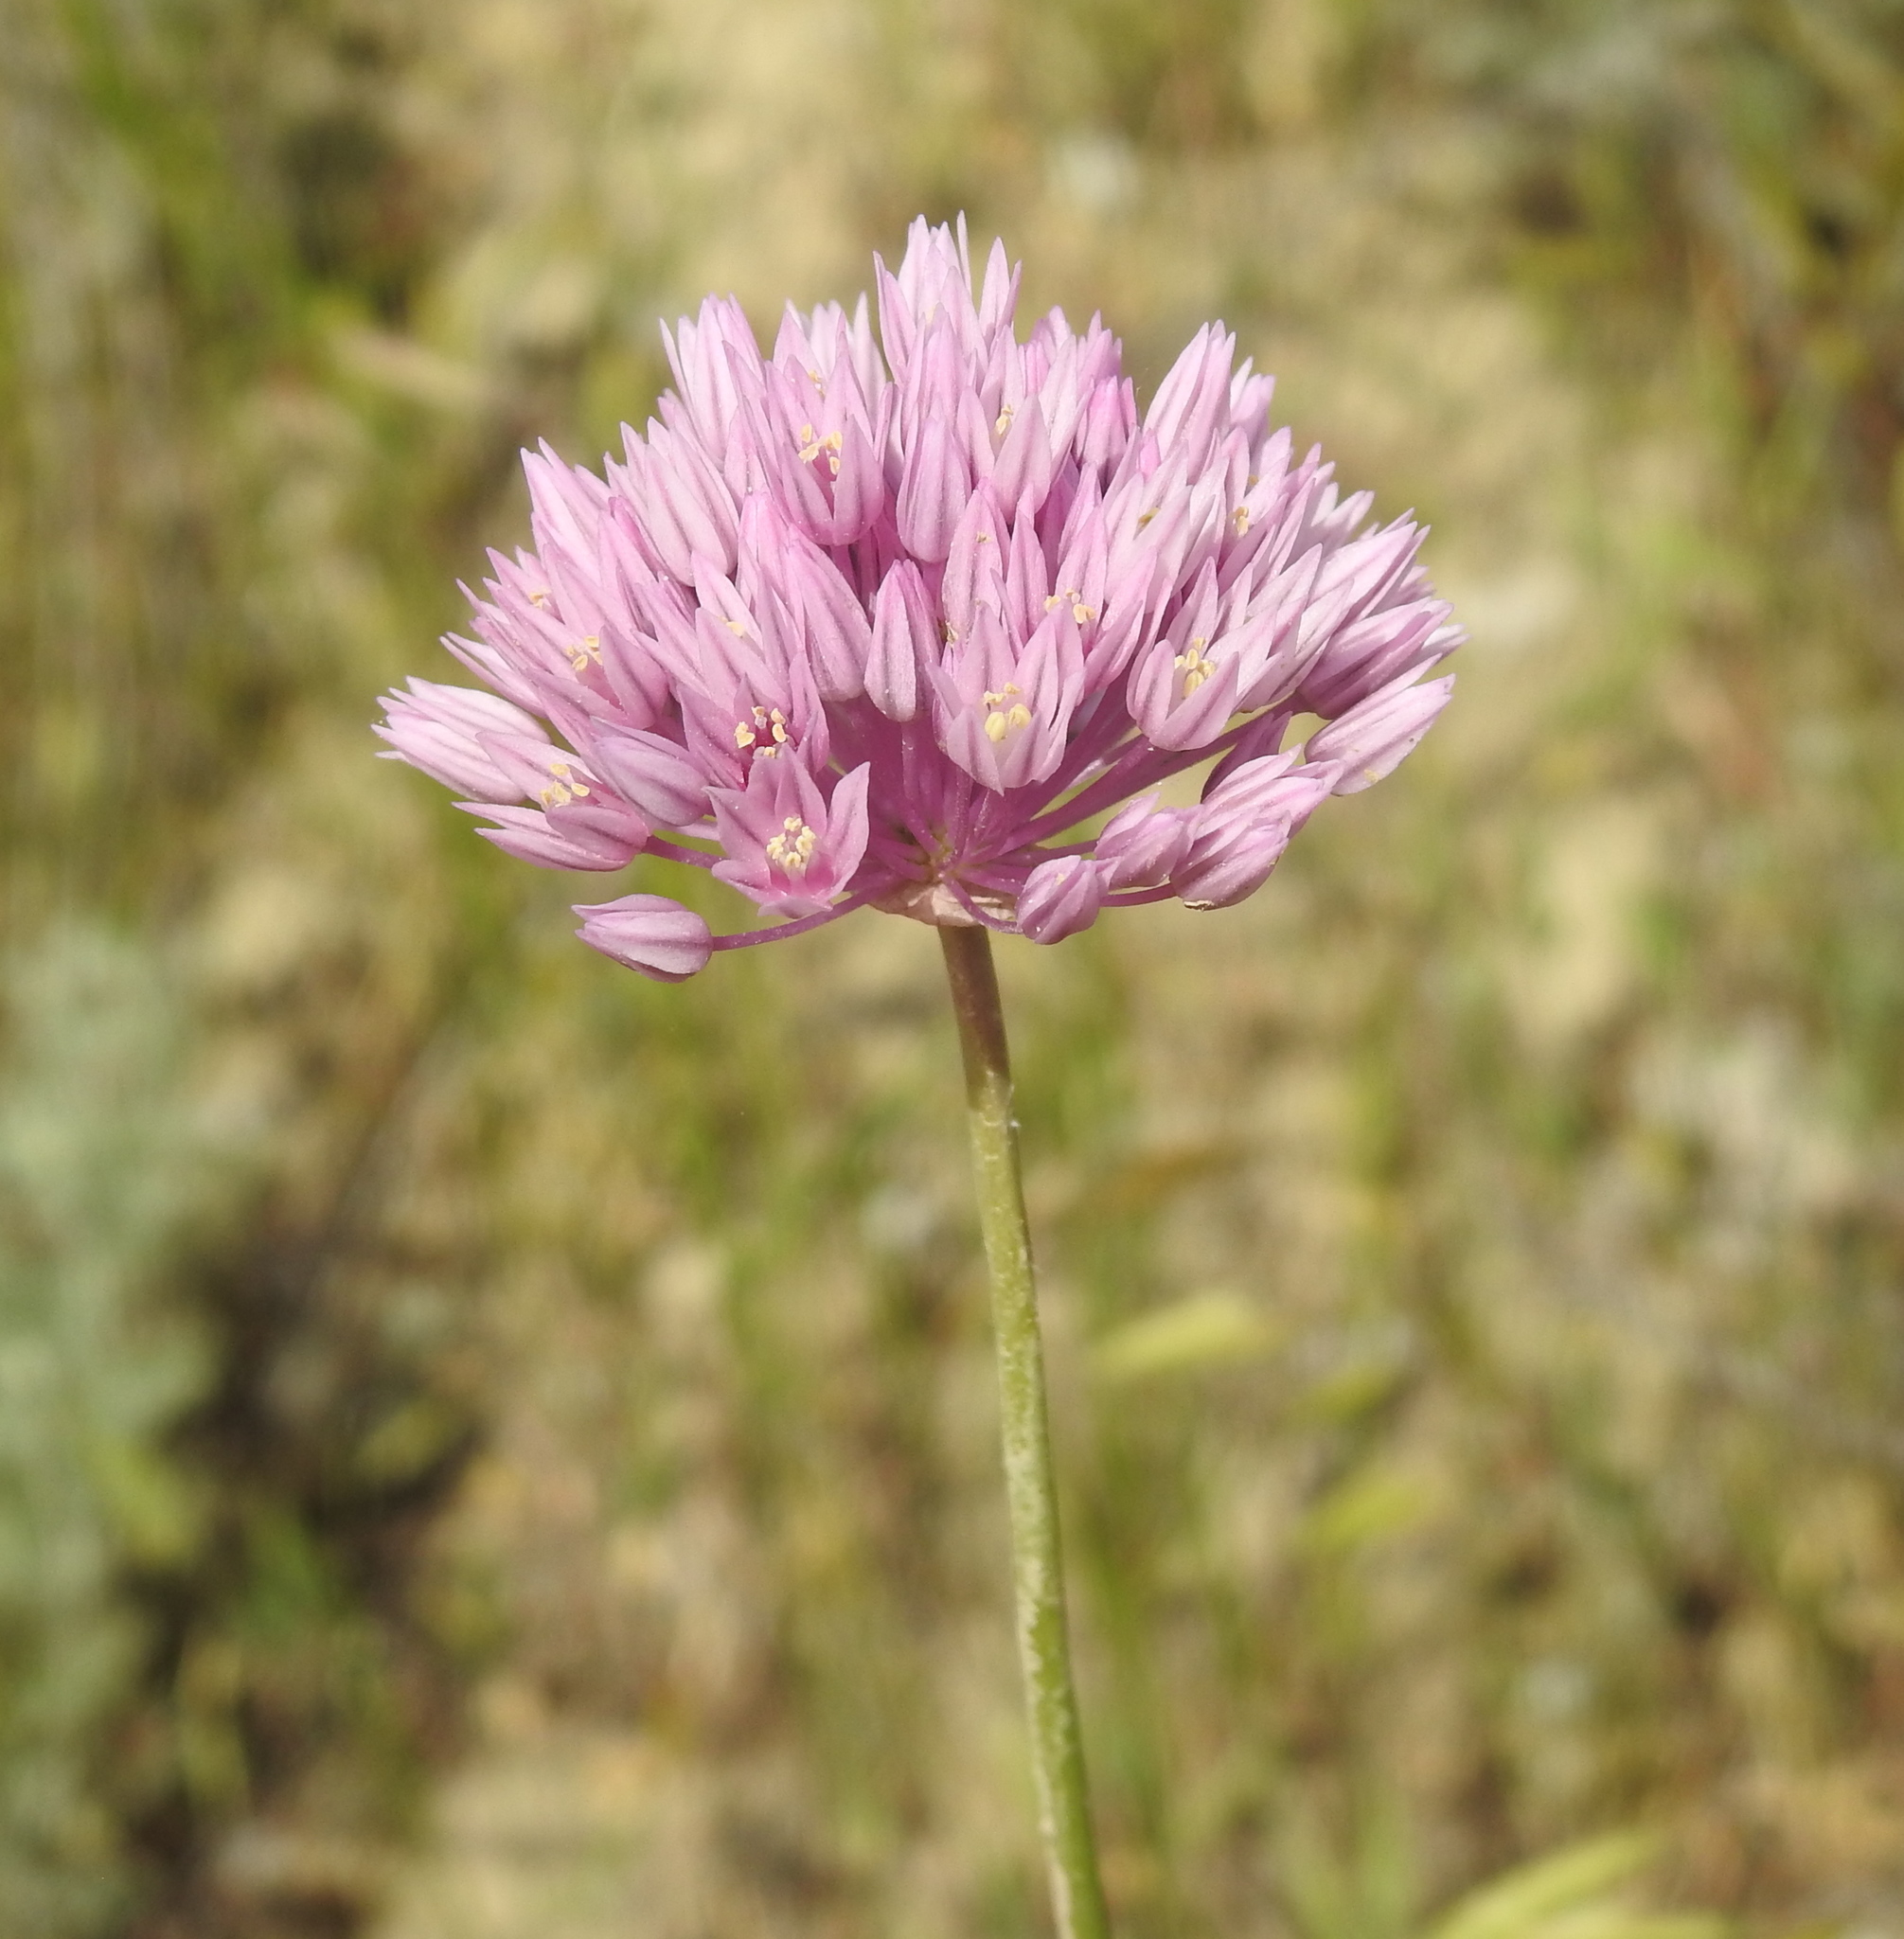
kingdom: Plantae
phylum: Tracheophyta
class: Liliopsida
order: Asparagales
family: Amaryllidaceae
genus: Allium
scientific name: Allium rubellum
